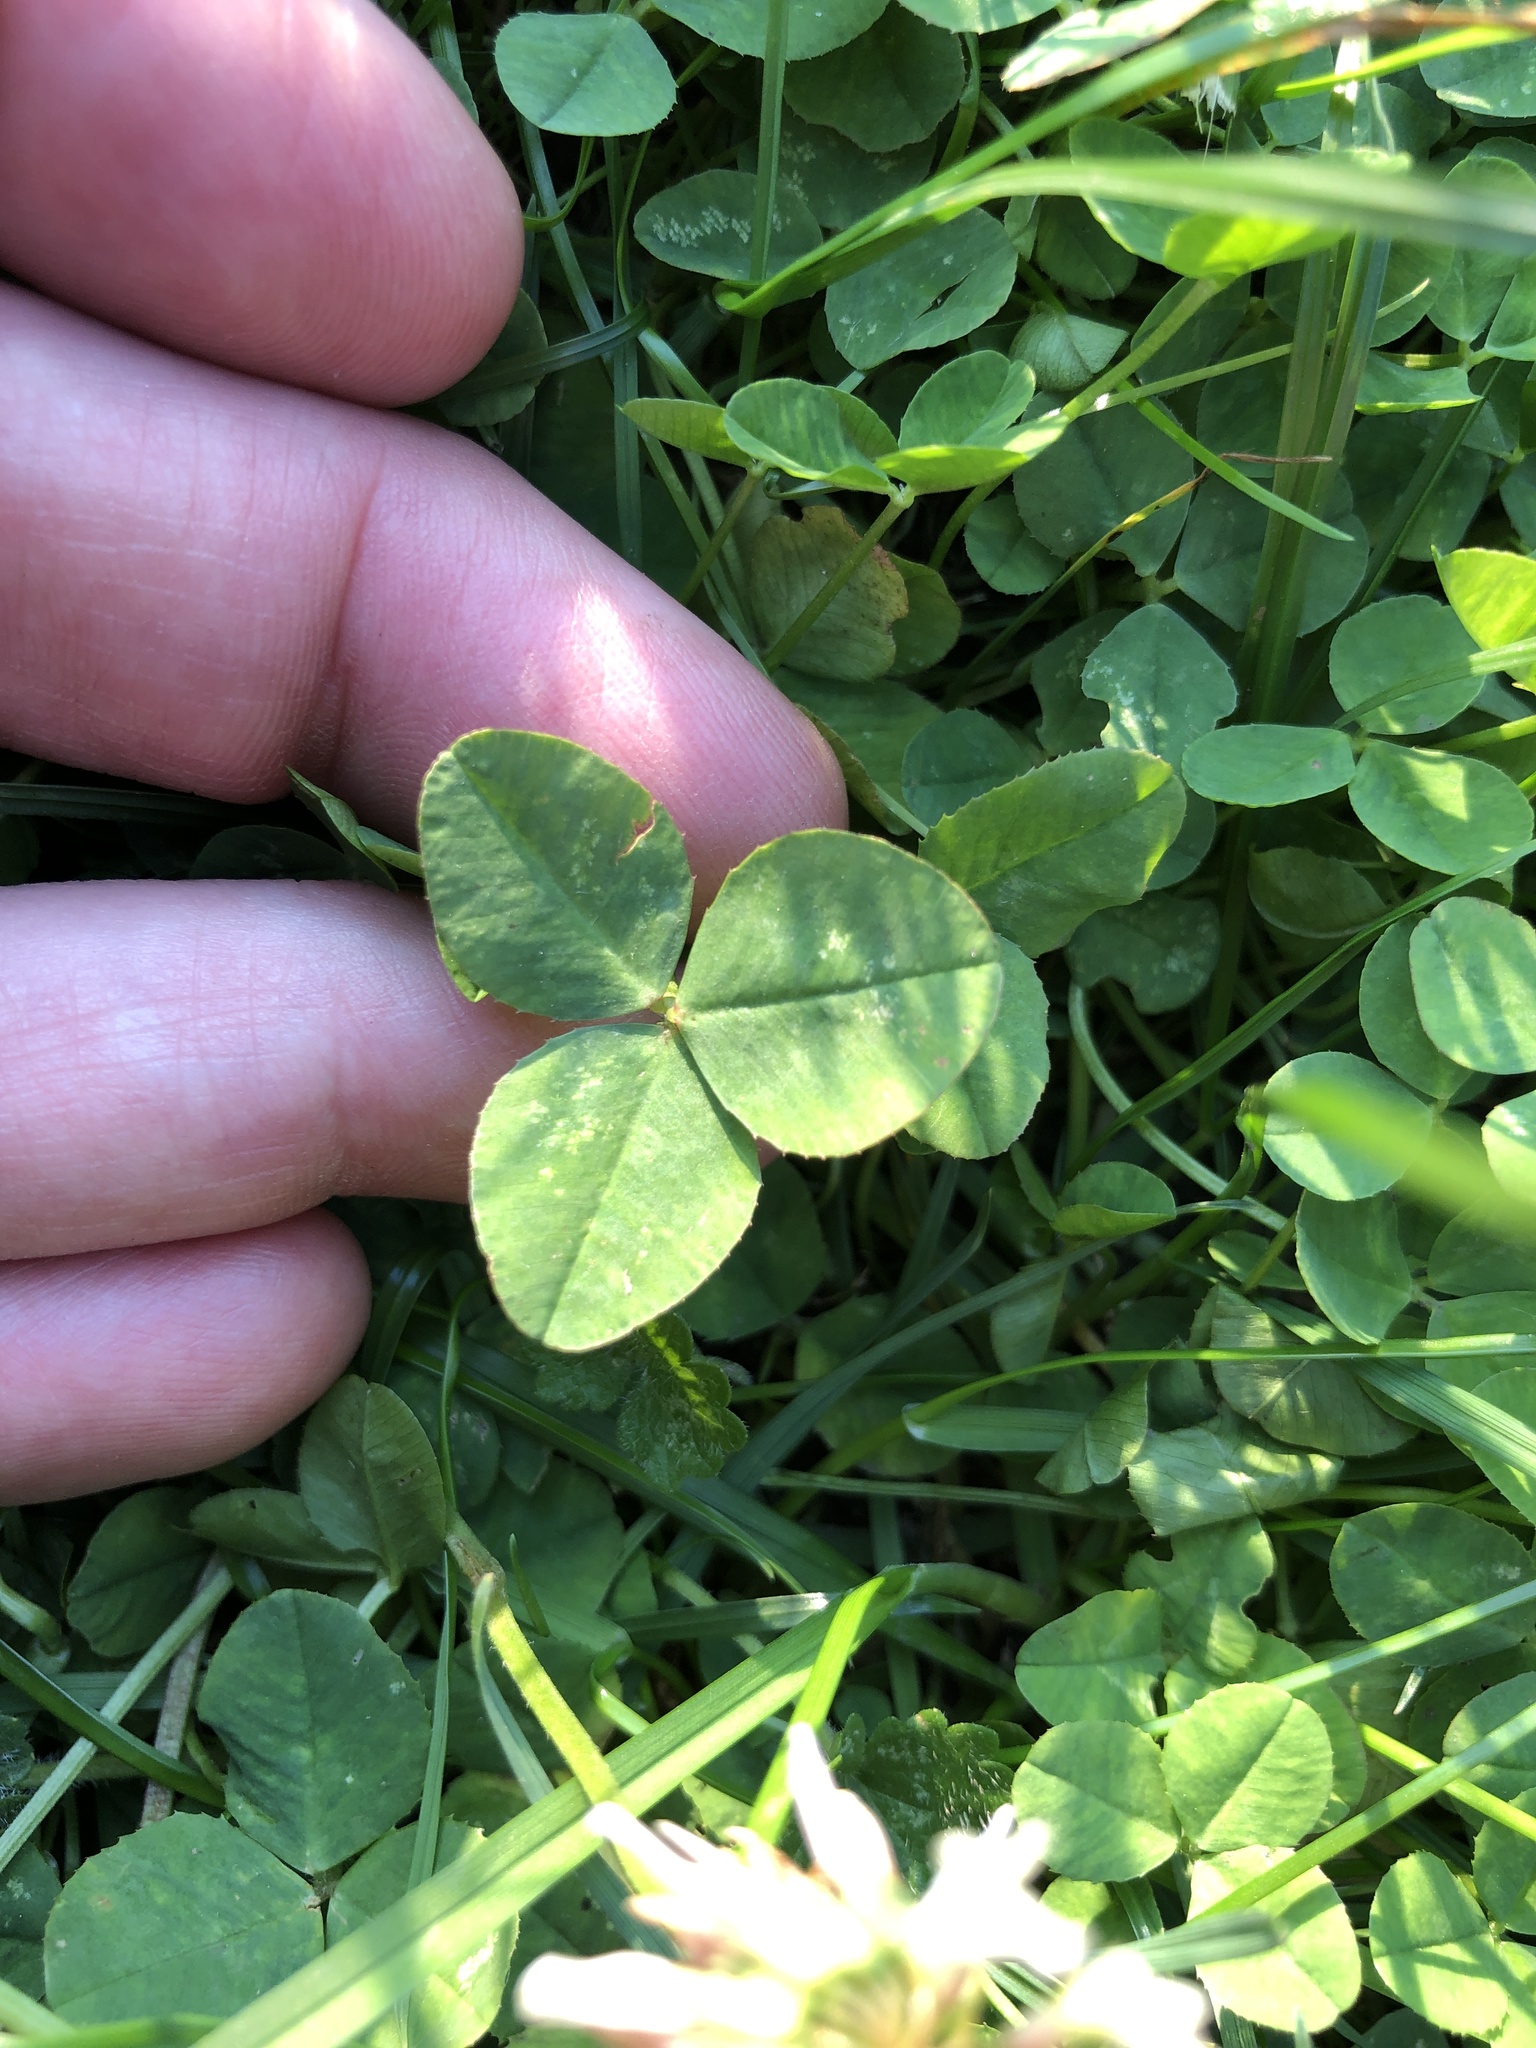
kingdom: Plantae
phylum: Tracheophyta
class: Magnoliopsida
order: Fabales
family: Fabaceae
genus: Trifolium
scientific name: Trifolium repens
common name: White clover
